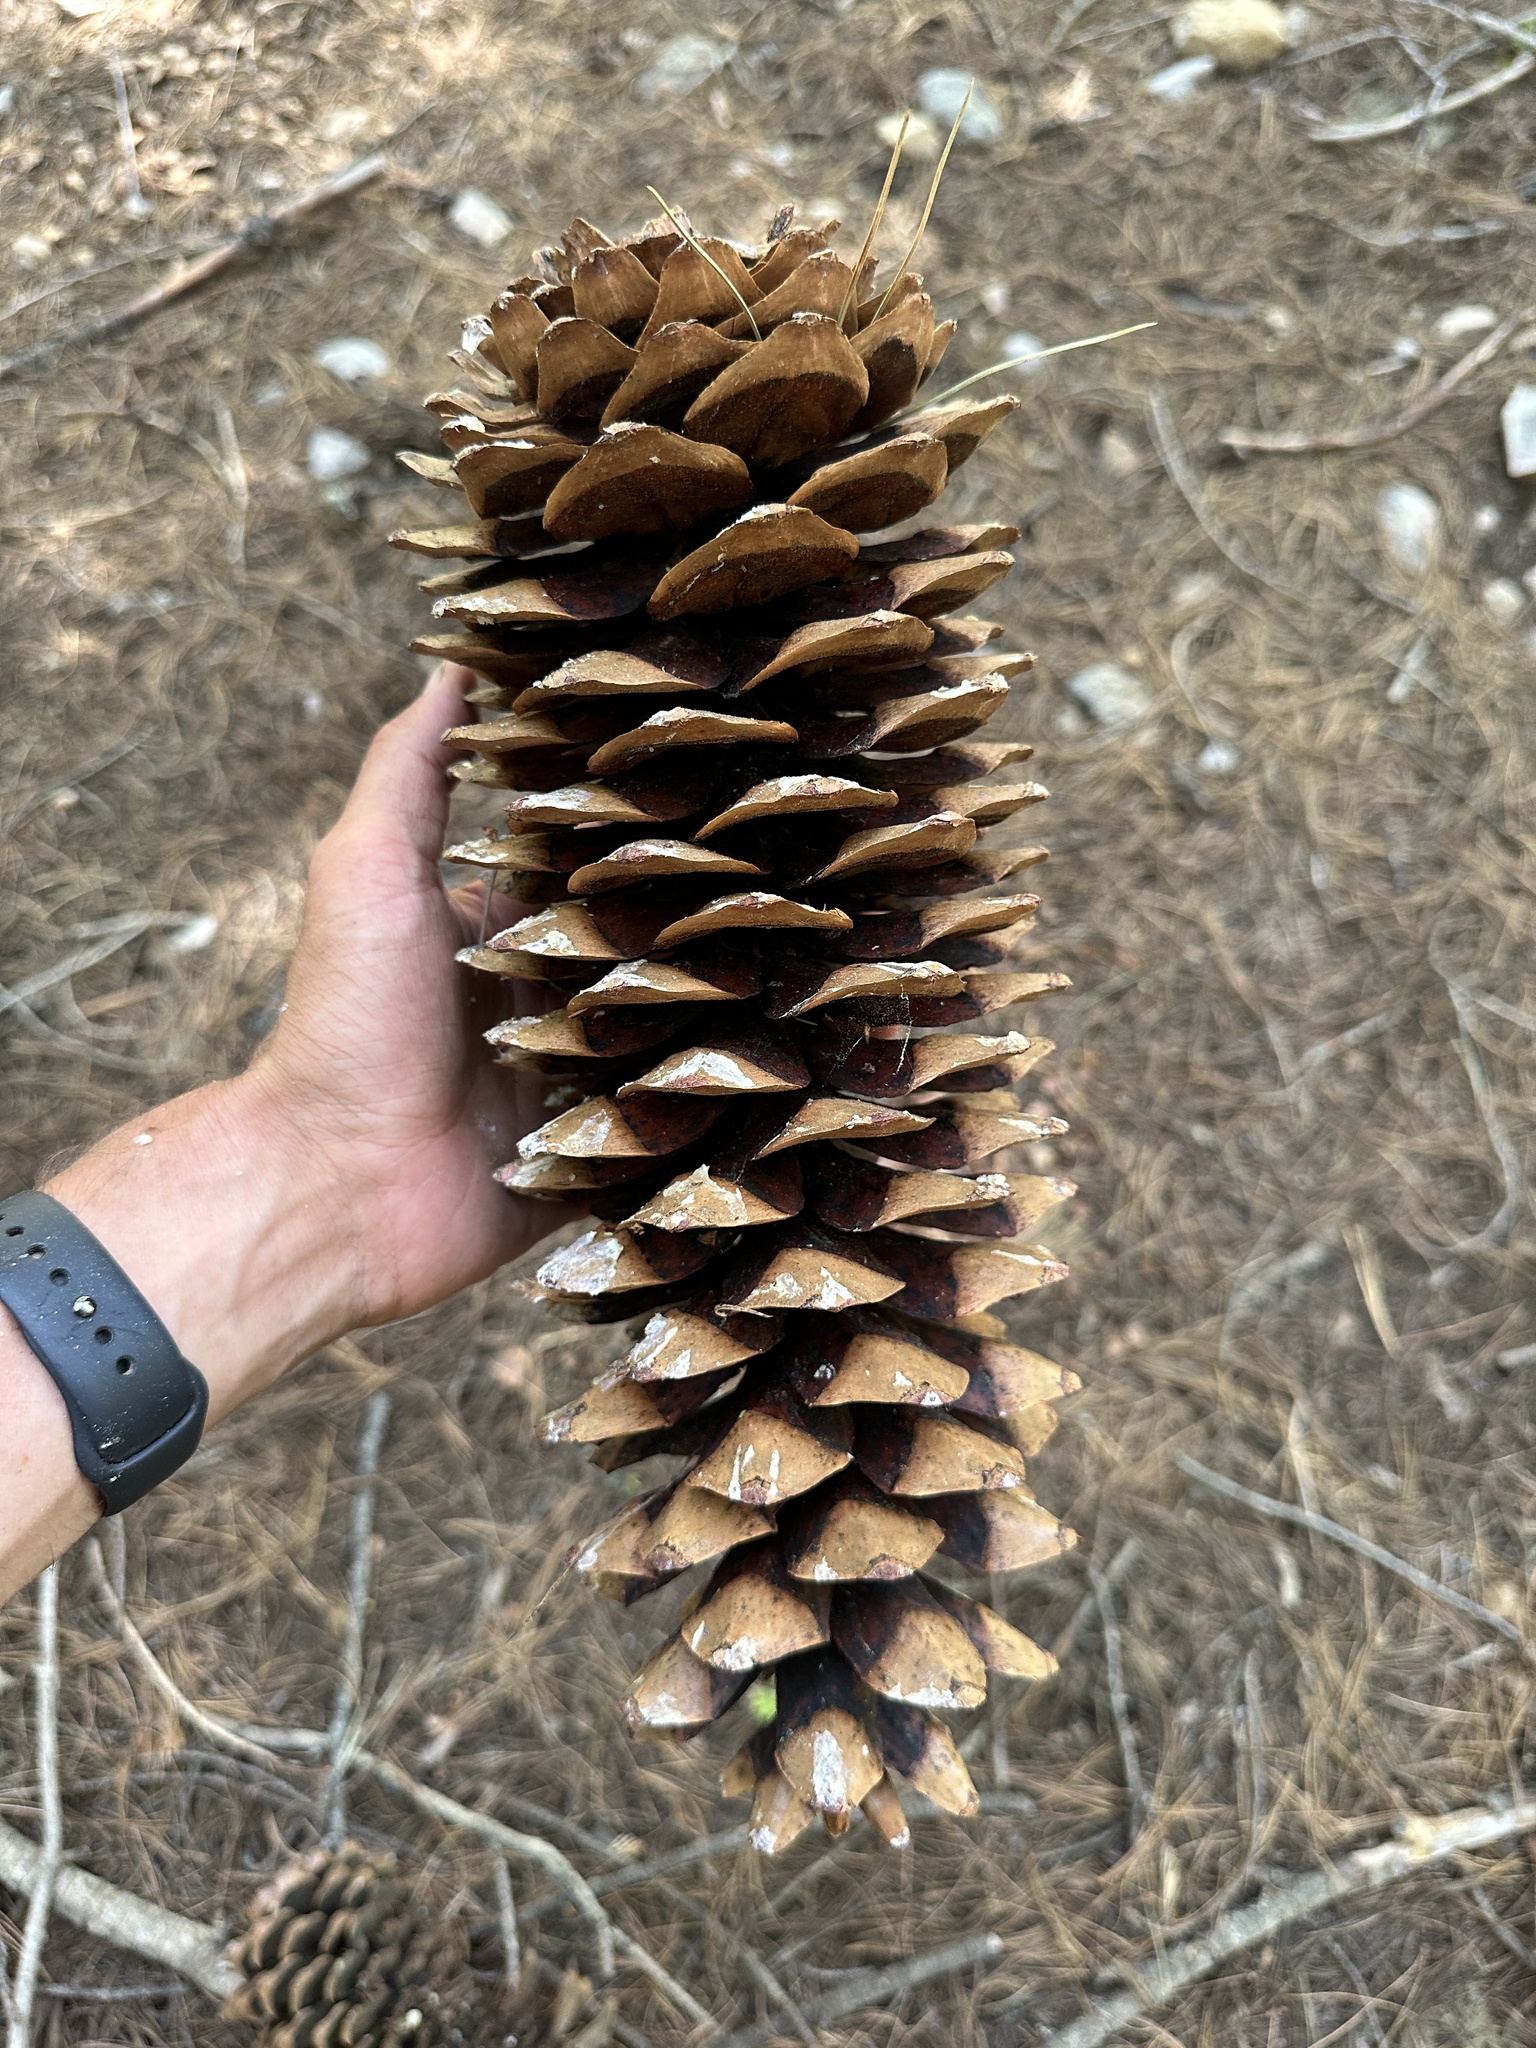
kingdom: Plantae
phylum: Tracheophyta
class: Pinopsida
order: Pinales
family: Pinaceae
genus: Pinus
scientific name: Pinus lambertiana
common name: Sugar pine
